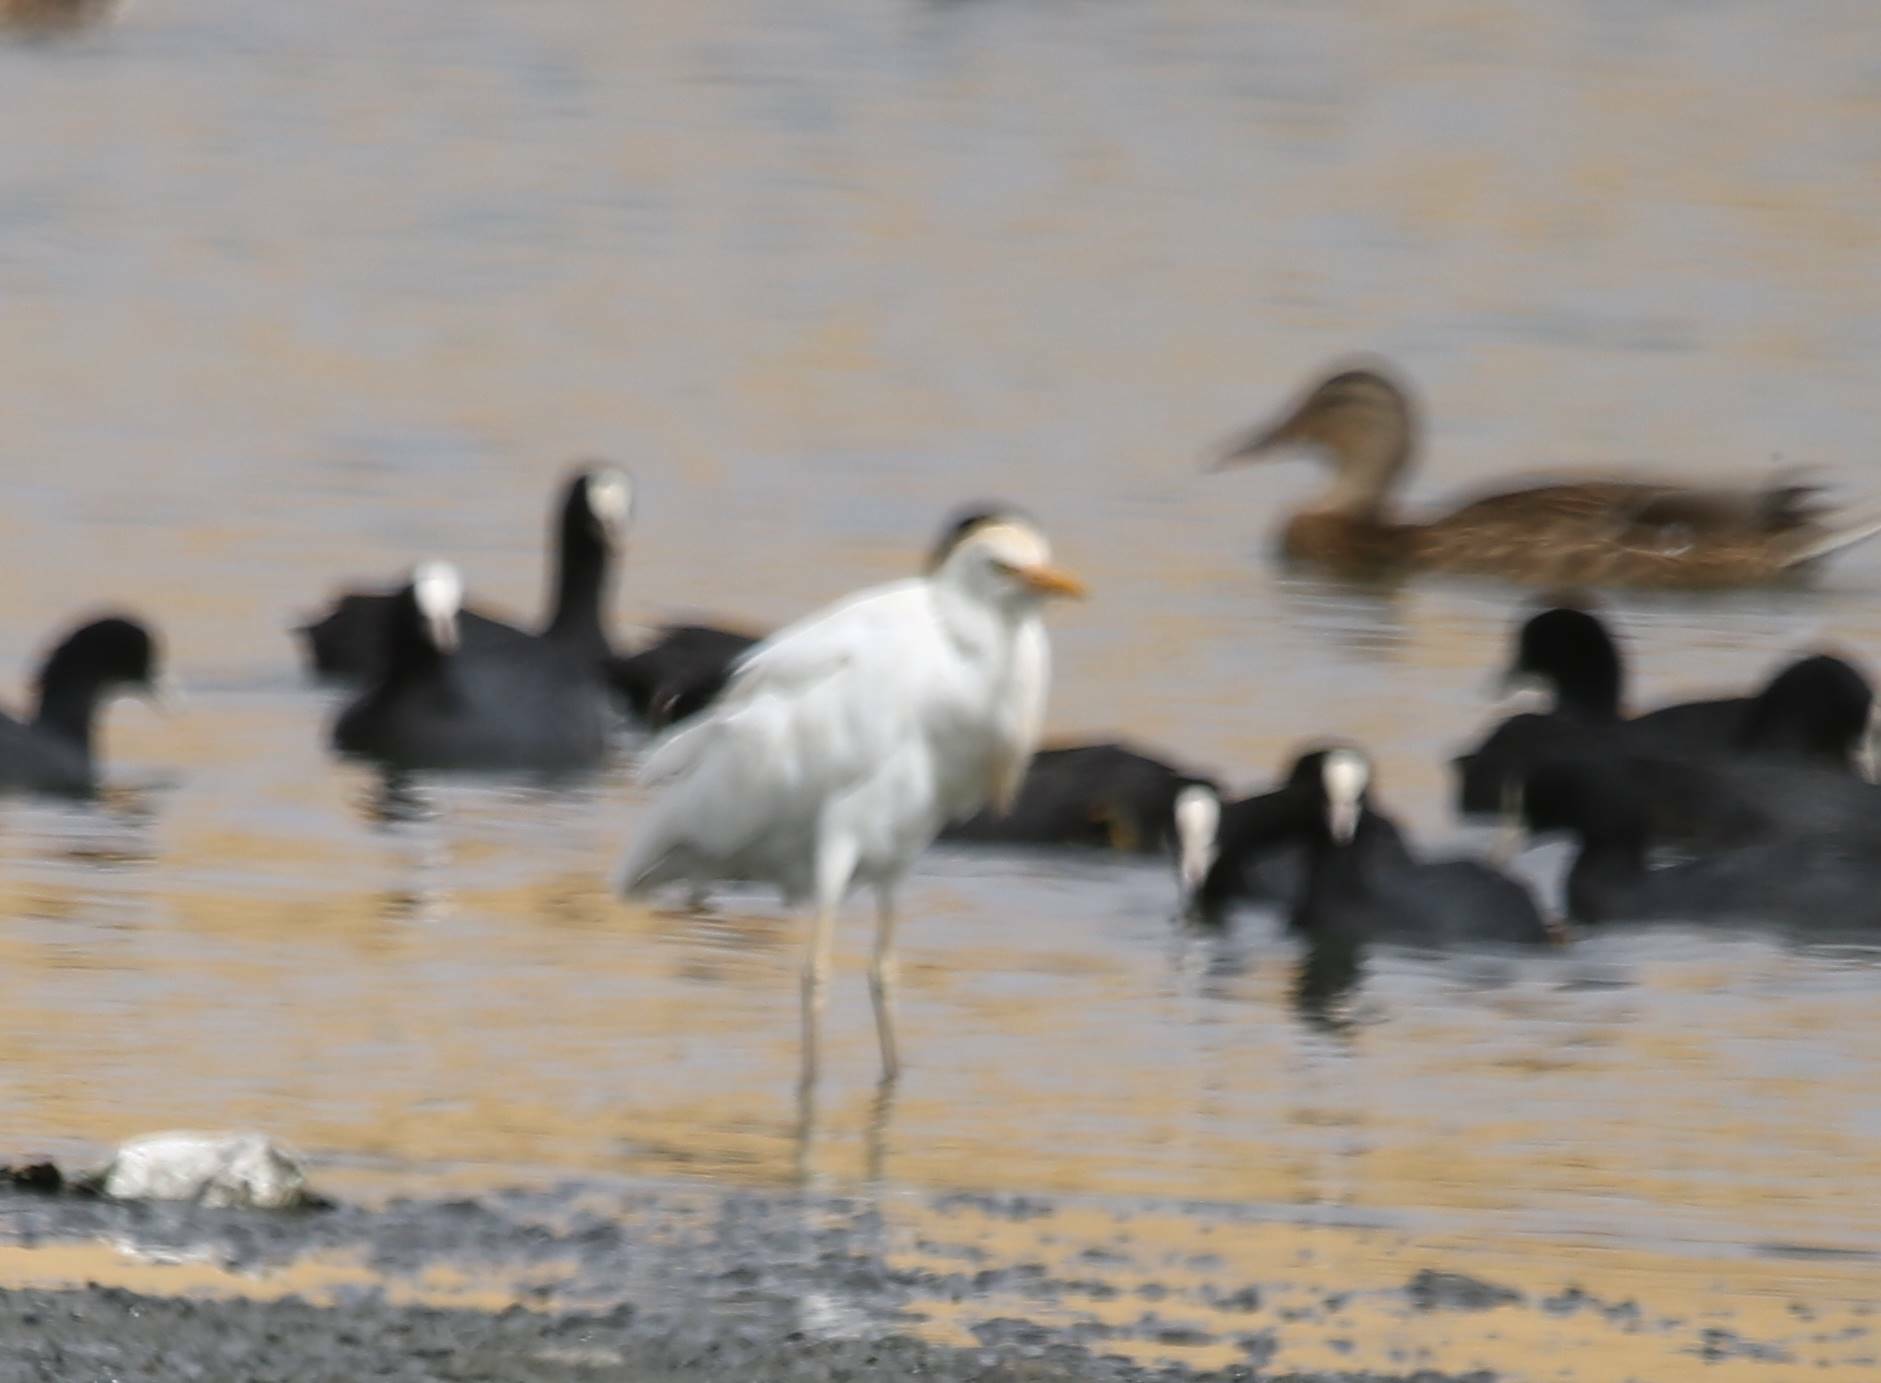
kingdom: Animalia
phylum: Chordata
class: Aves
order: Pelecaniformes
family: Ardeidae
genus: Bubulcus
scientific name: Bubulcus ibis
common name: Cattle egret
